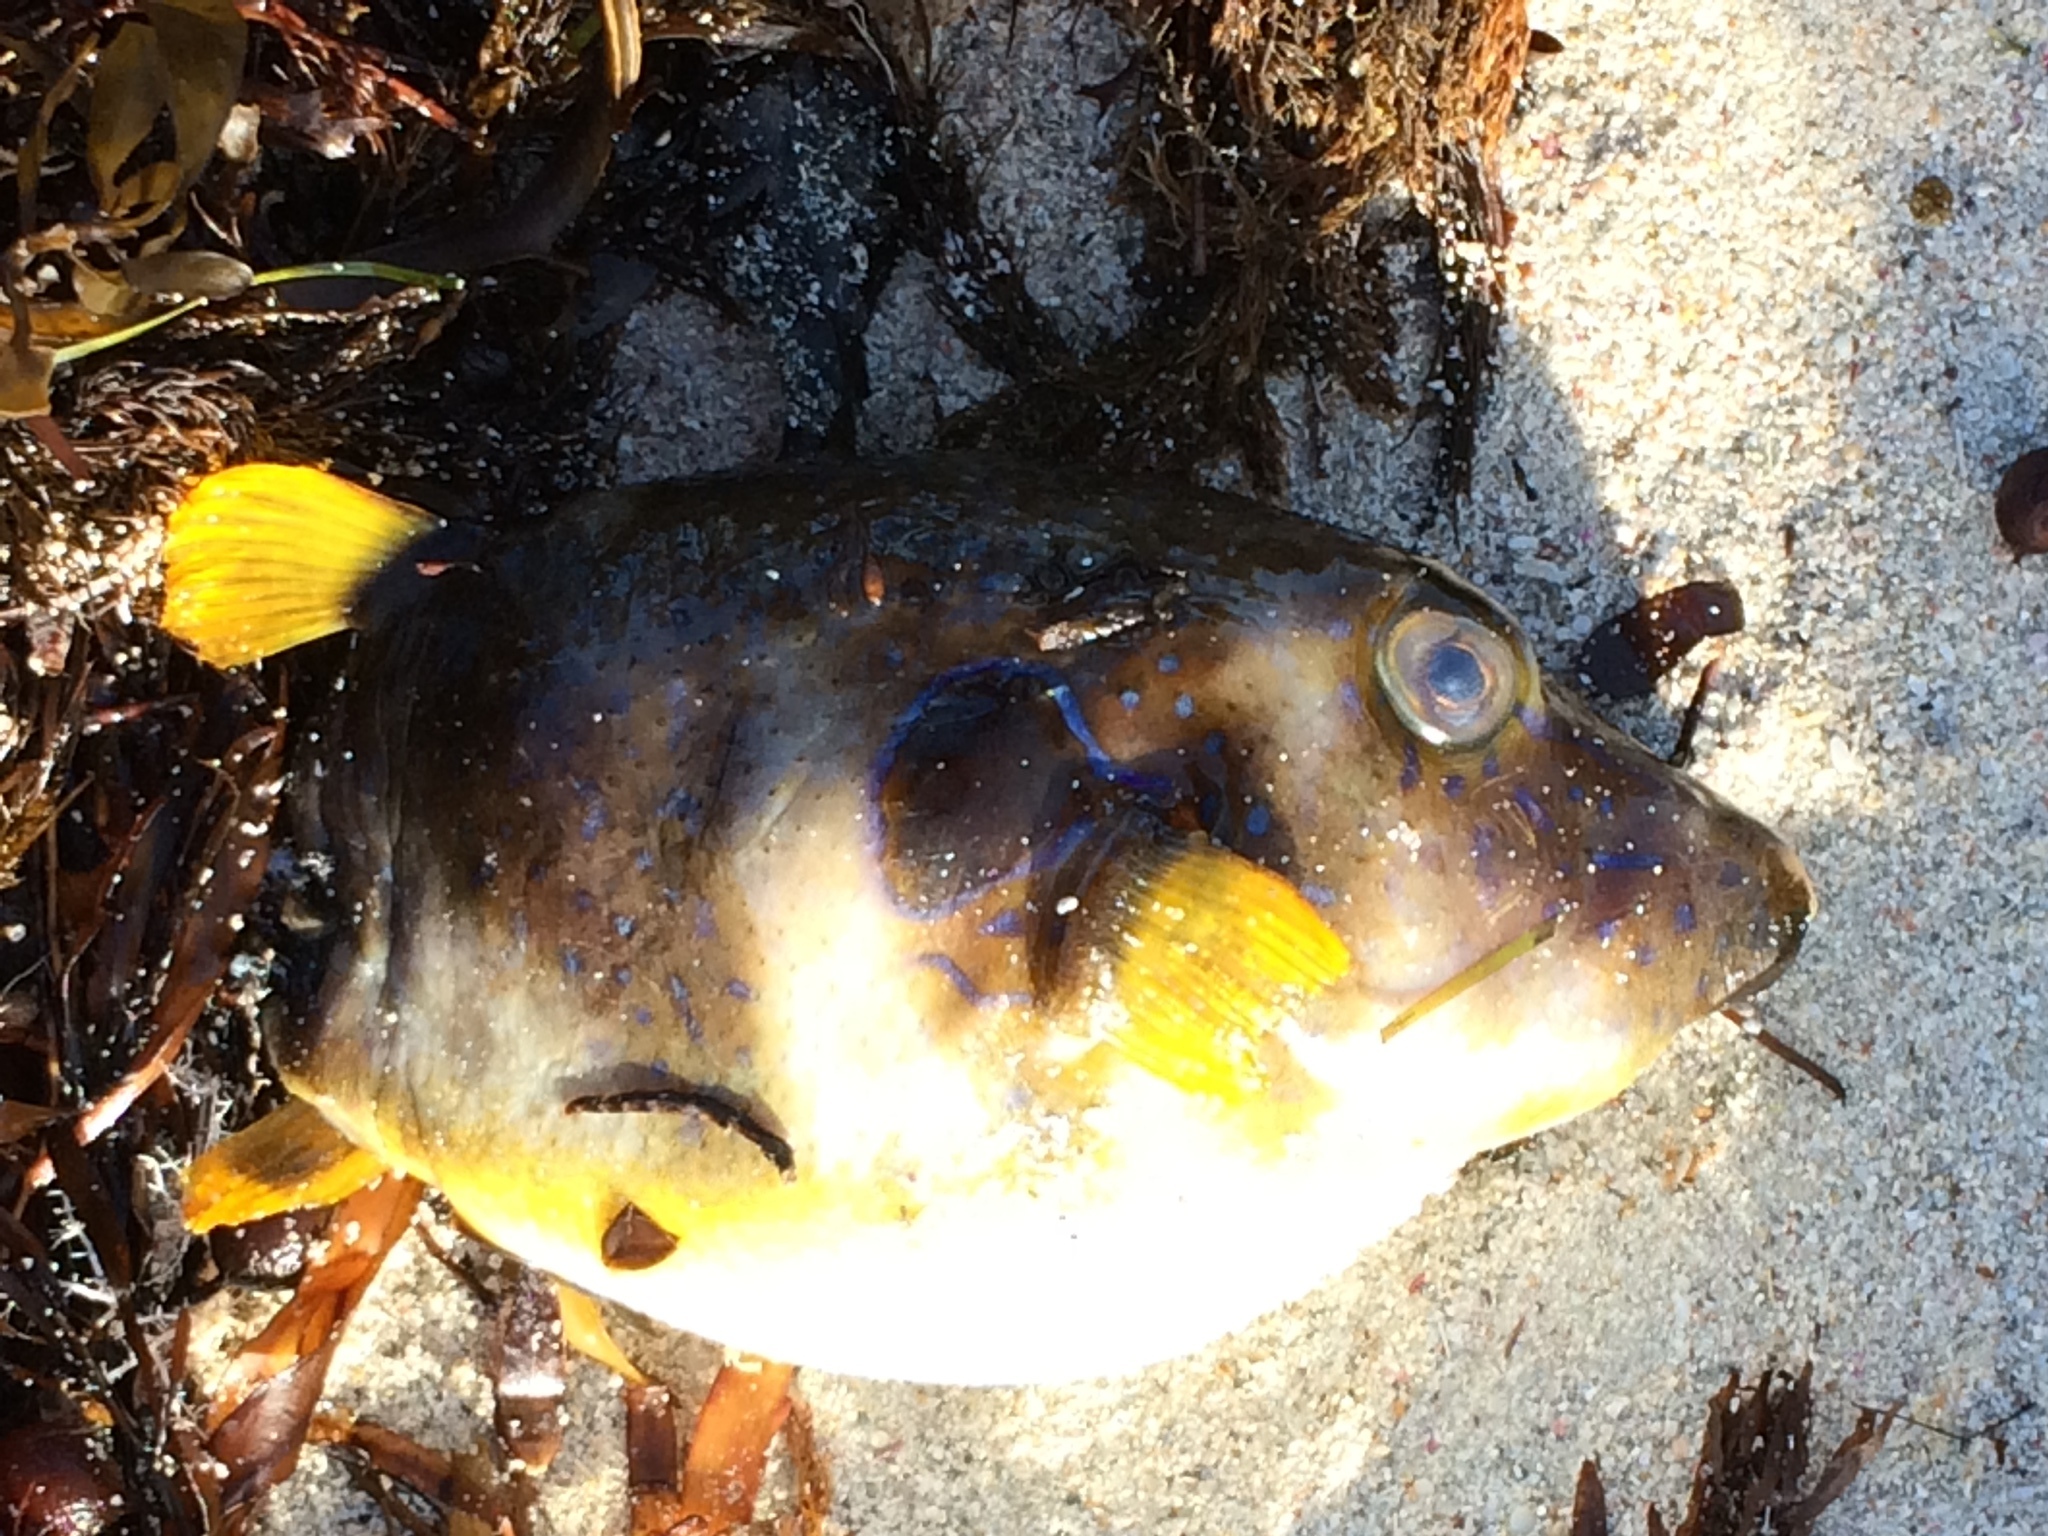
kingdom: Animalia
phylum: Chordata
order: Tetraodontiformes
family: Tetraodontidae
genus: Omegophora
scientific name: Omegophora cyanopunctata
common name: Bluespotted toadfish
